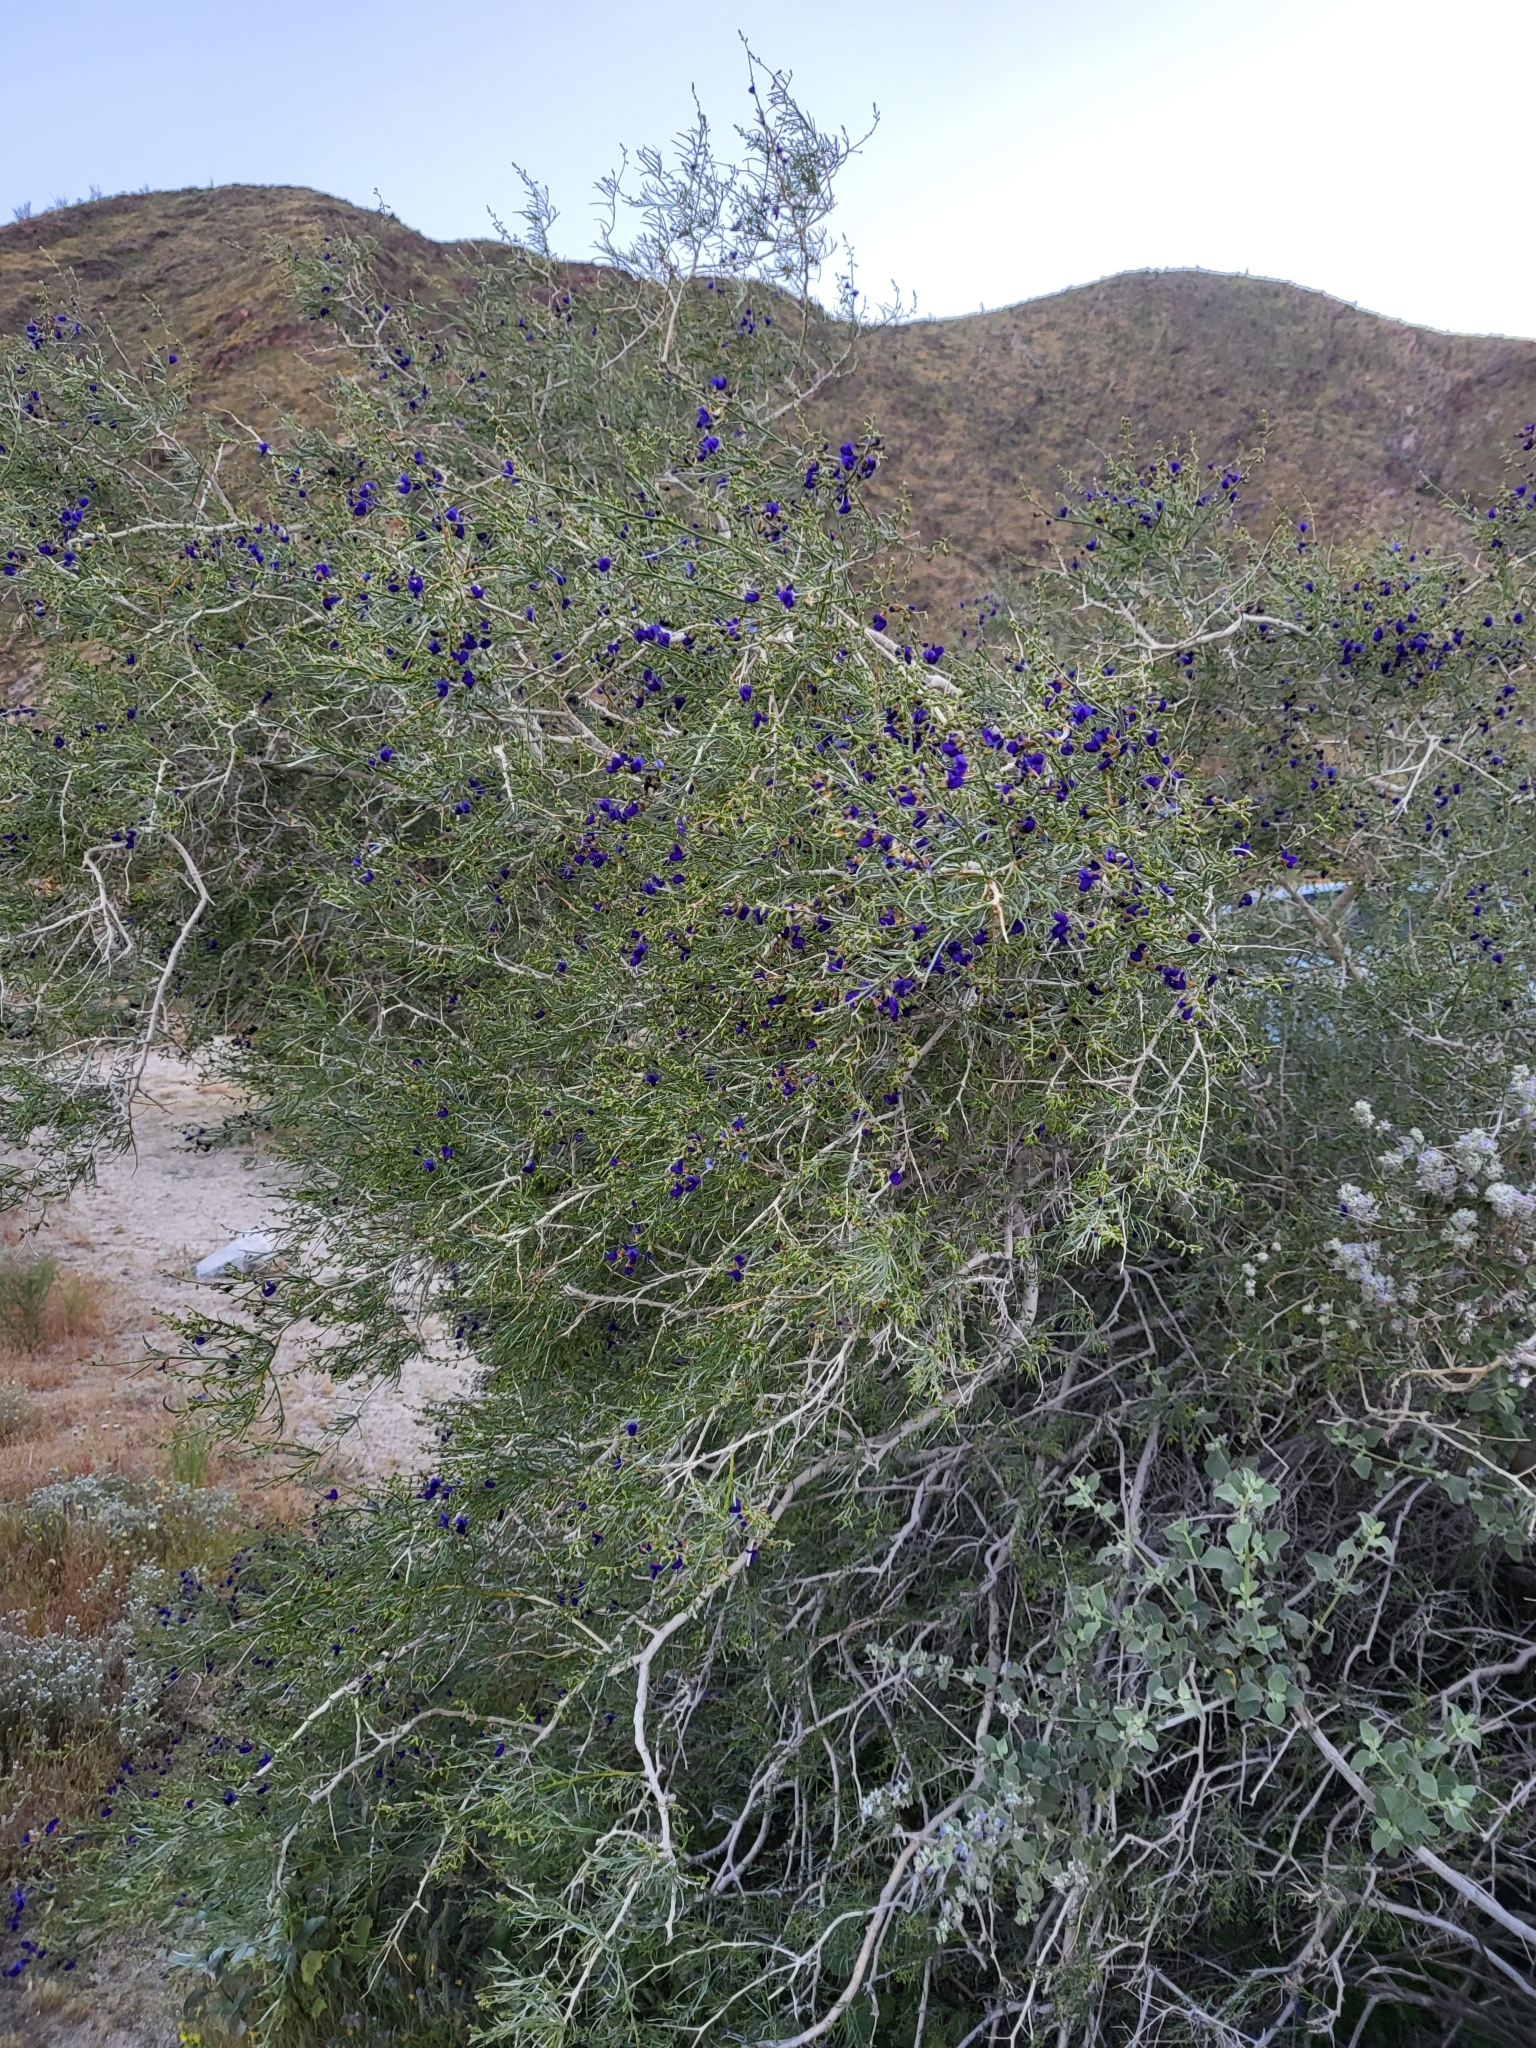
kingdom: Plantae
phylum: Tracheophyta
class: Magnoliopsida
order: Fabales
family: Fabaceae
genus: Psorothamnus
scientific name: Psorothamnus schottii
